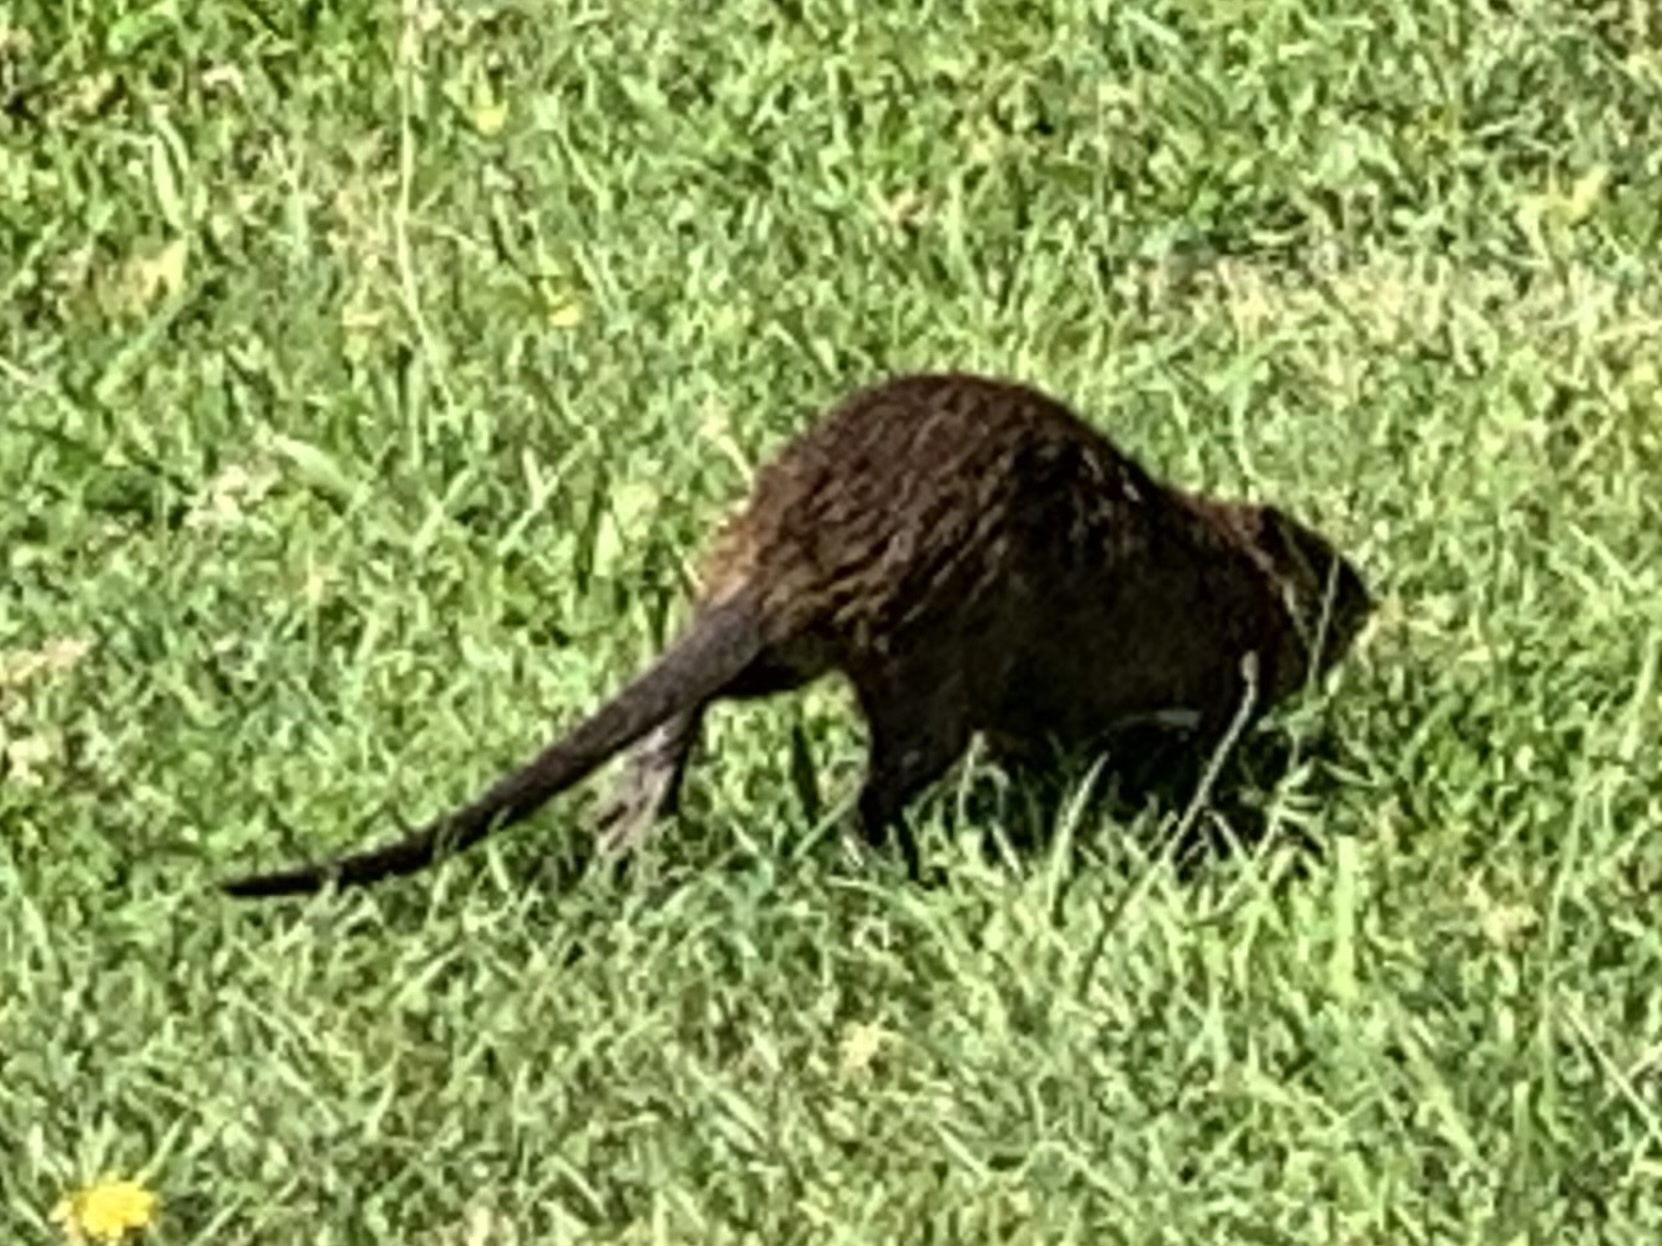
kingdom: Animalia
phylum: Chordata
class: Mammalia
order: Rodentia
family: Myocastoridae
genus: Myocastor
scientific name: Myocastor coypus
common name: Coypu
